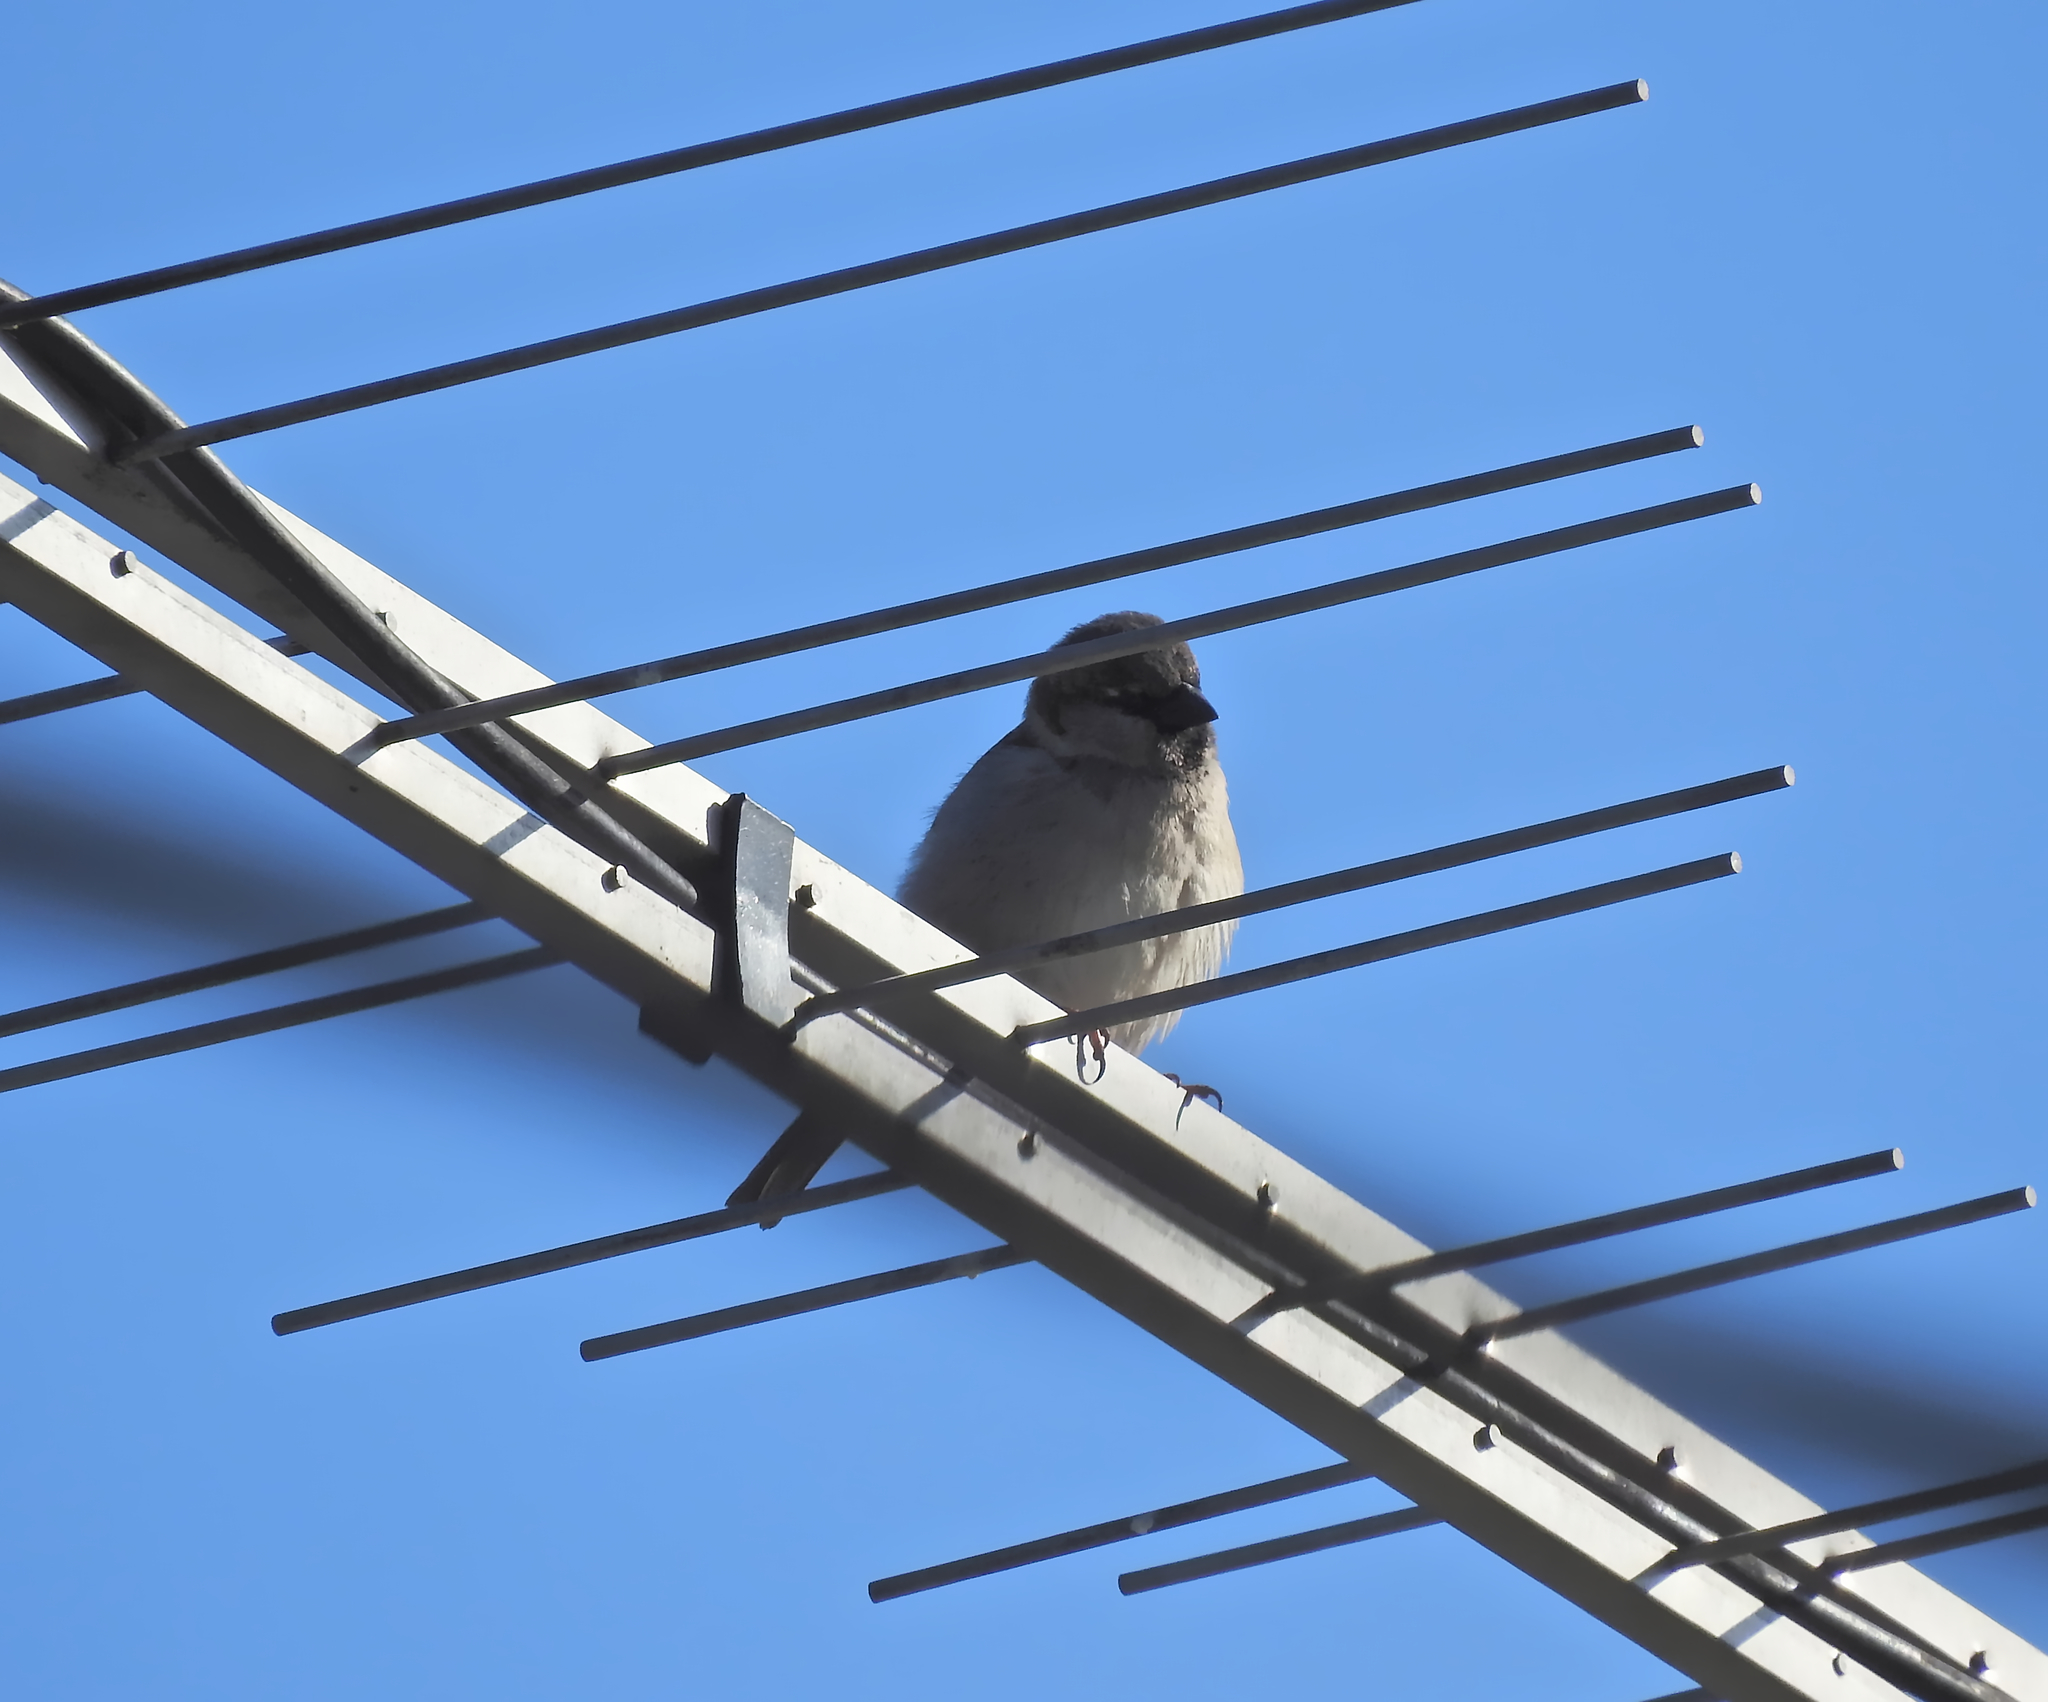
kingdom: Animalia
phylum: Chordata
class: Aves
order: Passeriformes
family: Passeridae
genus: Passer
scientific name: Passer domesticus
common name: House sparrow
